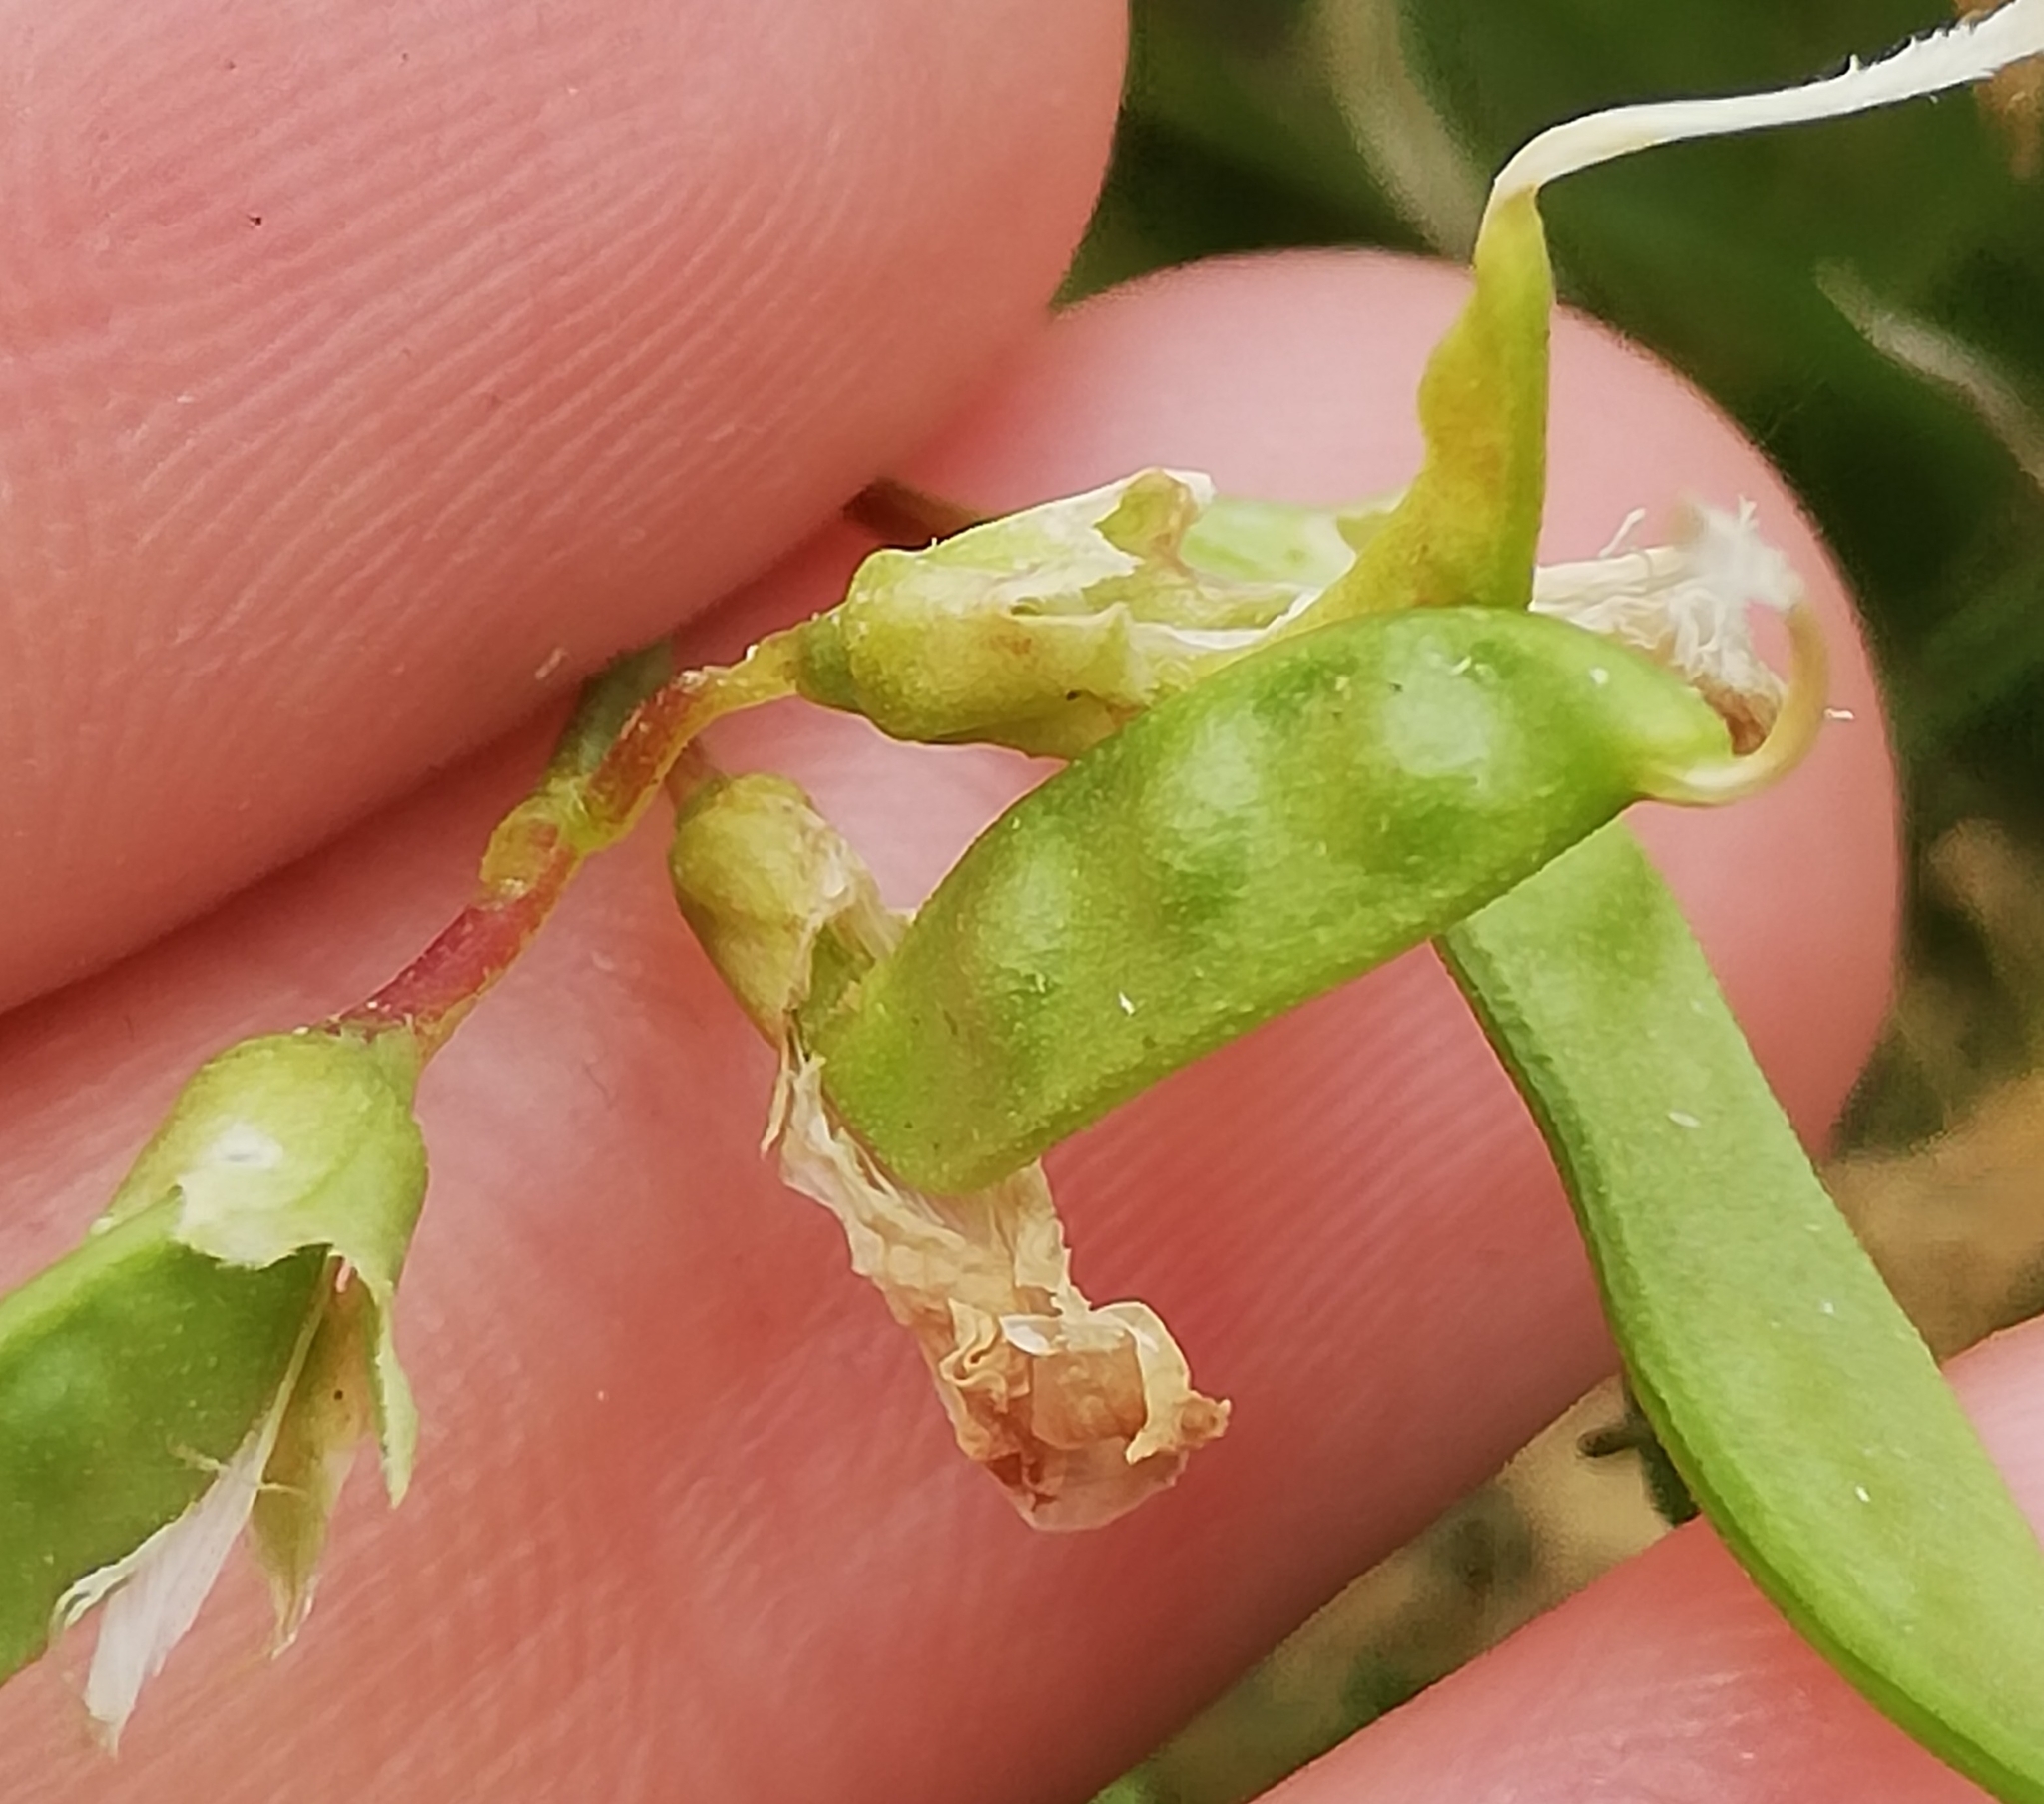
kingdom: Plantae
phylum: Tracheophyta
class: Magnoliopsida
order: Fabales
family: Fabaceae
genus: Lathyrus
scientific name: Lathyrus tuberosus
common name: Tuberous pea
